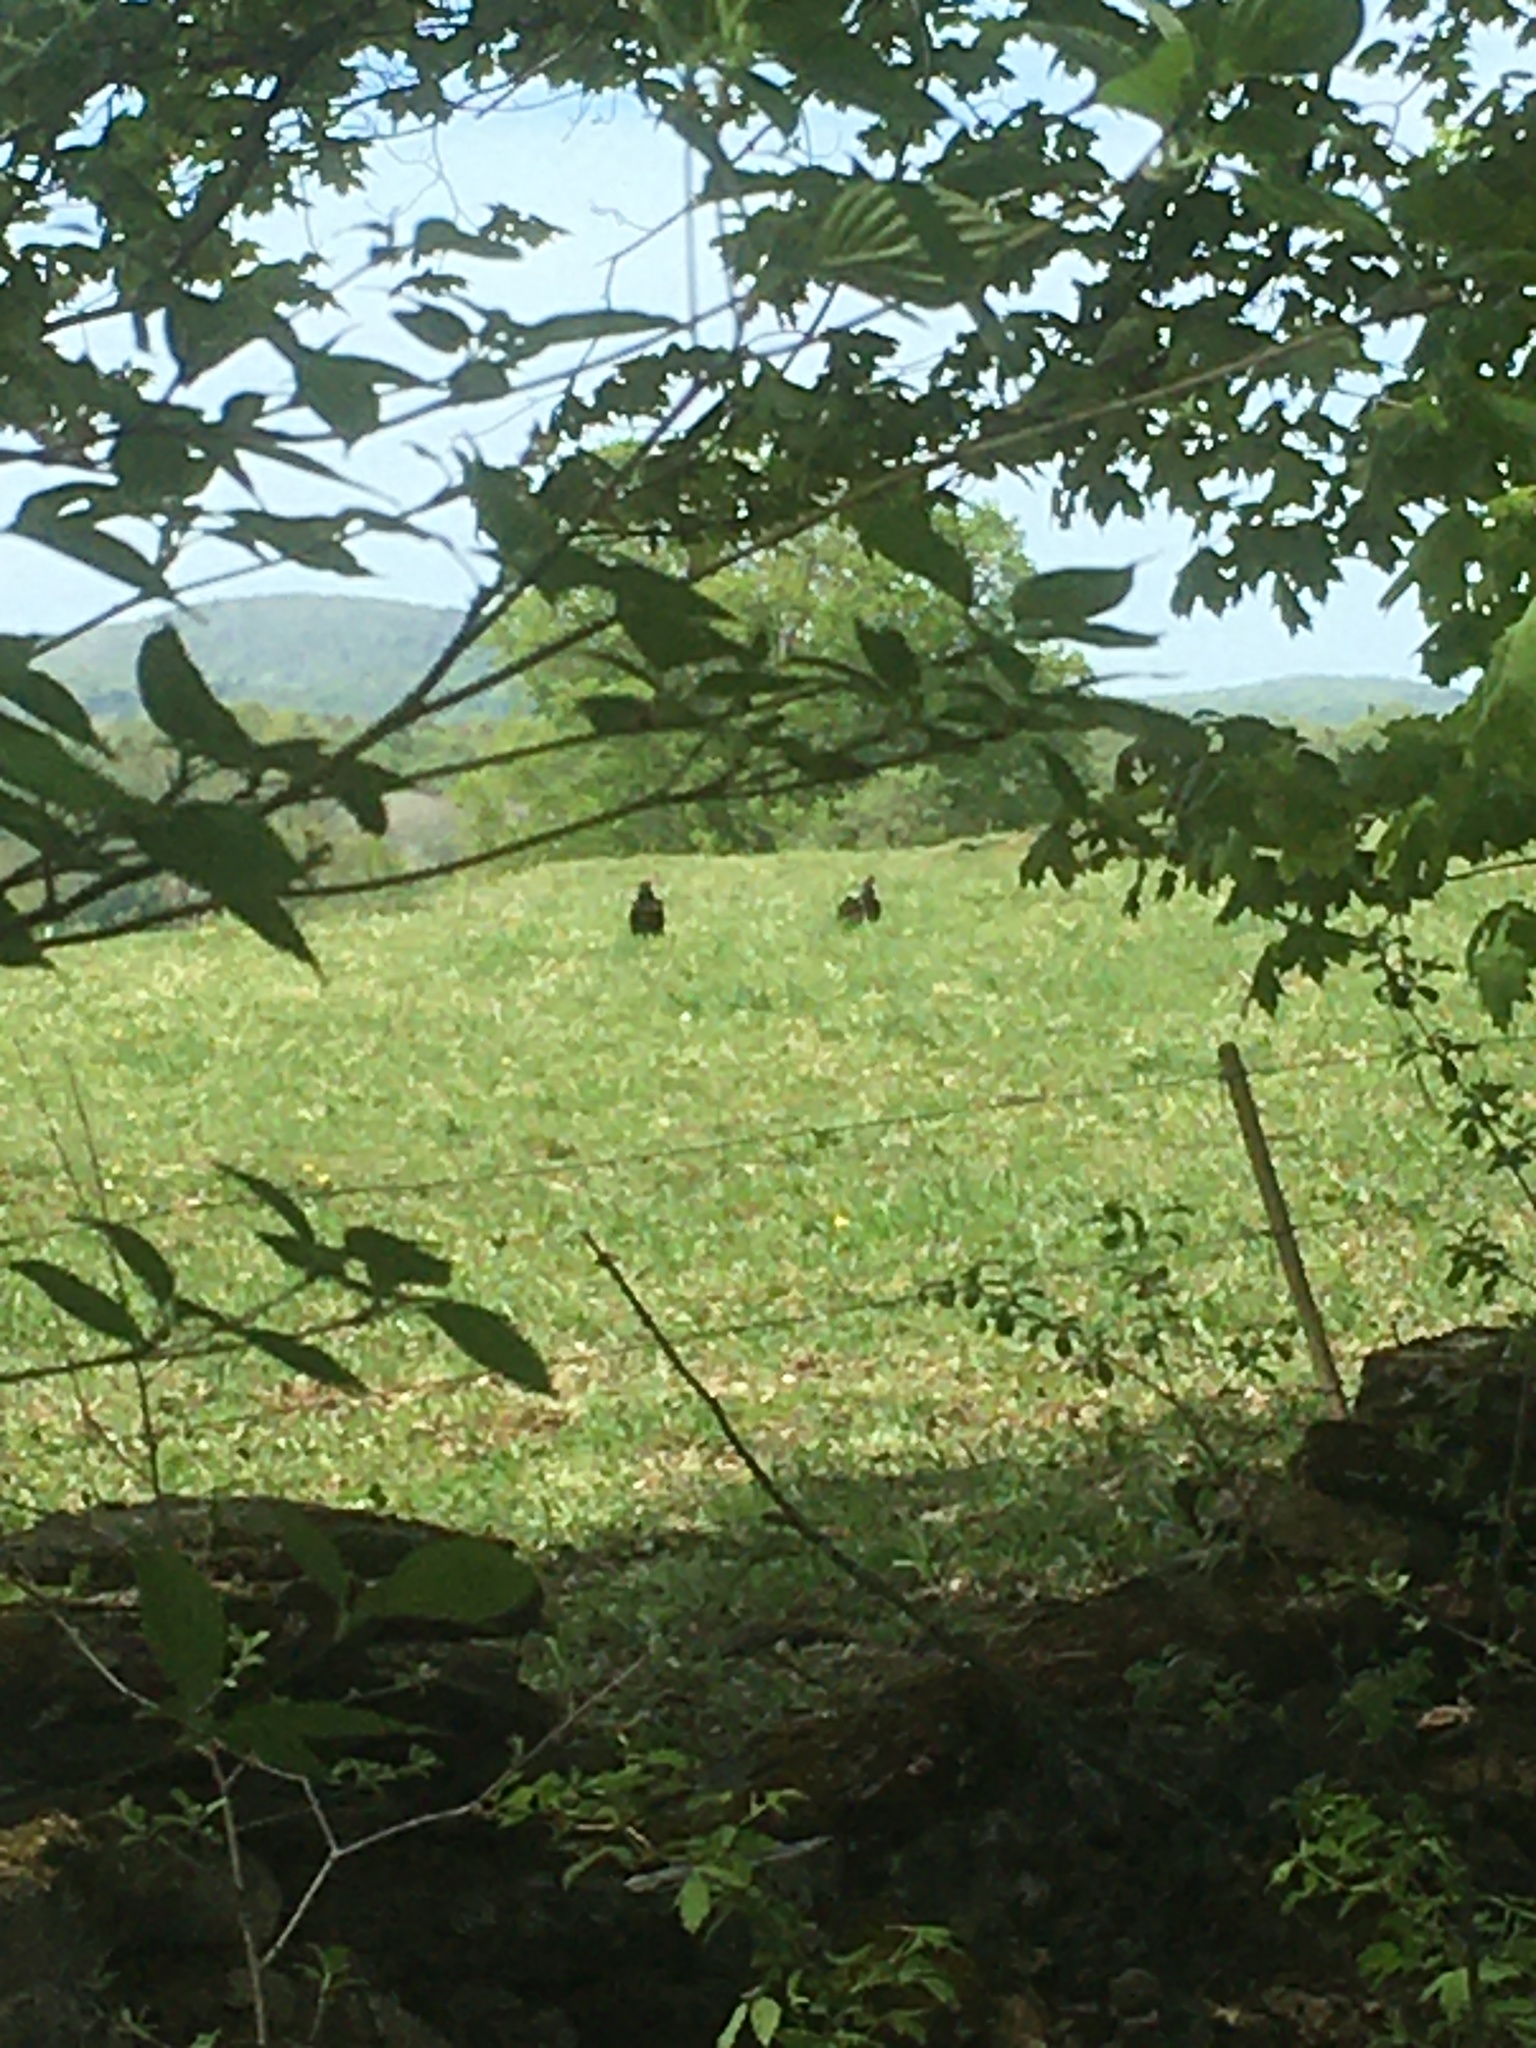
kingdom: Animalia
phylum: Chordata
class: Aves
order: Accipitriformes
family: Cathartidae
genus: Cathartes
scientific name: Cathartes aura
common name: Turkey vulture
